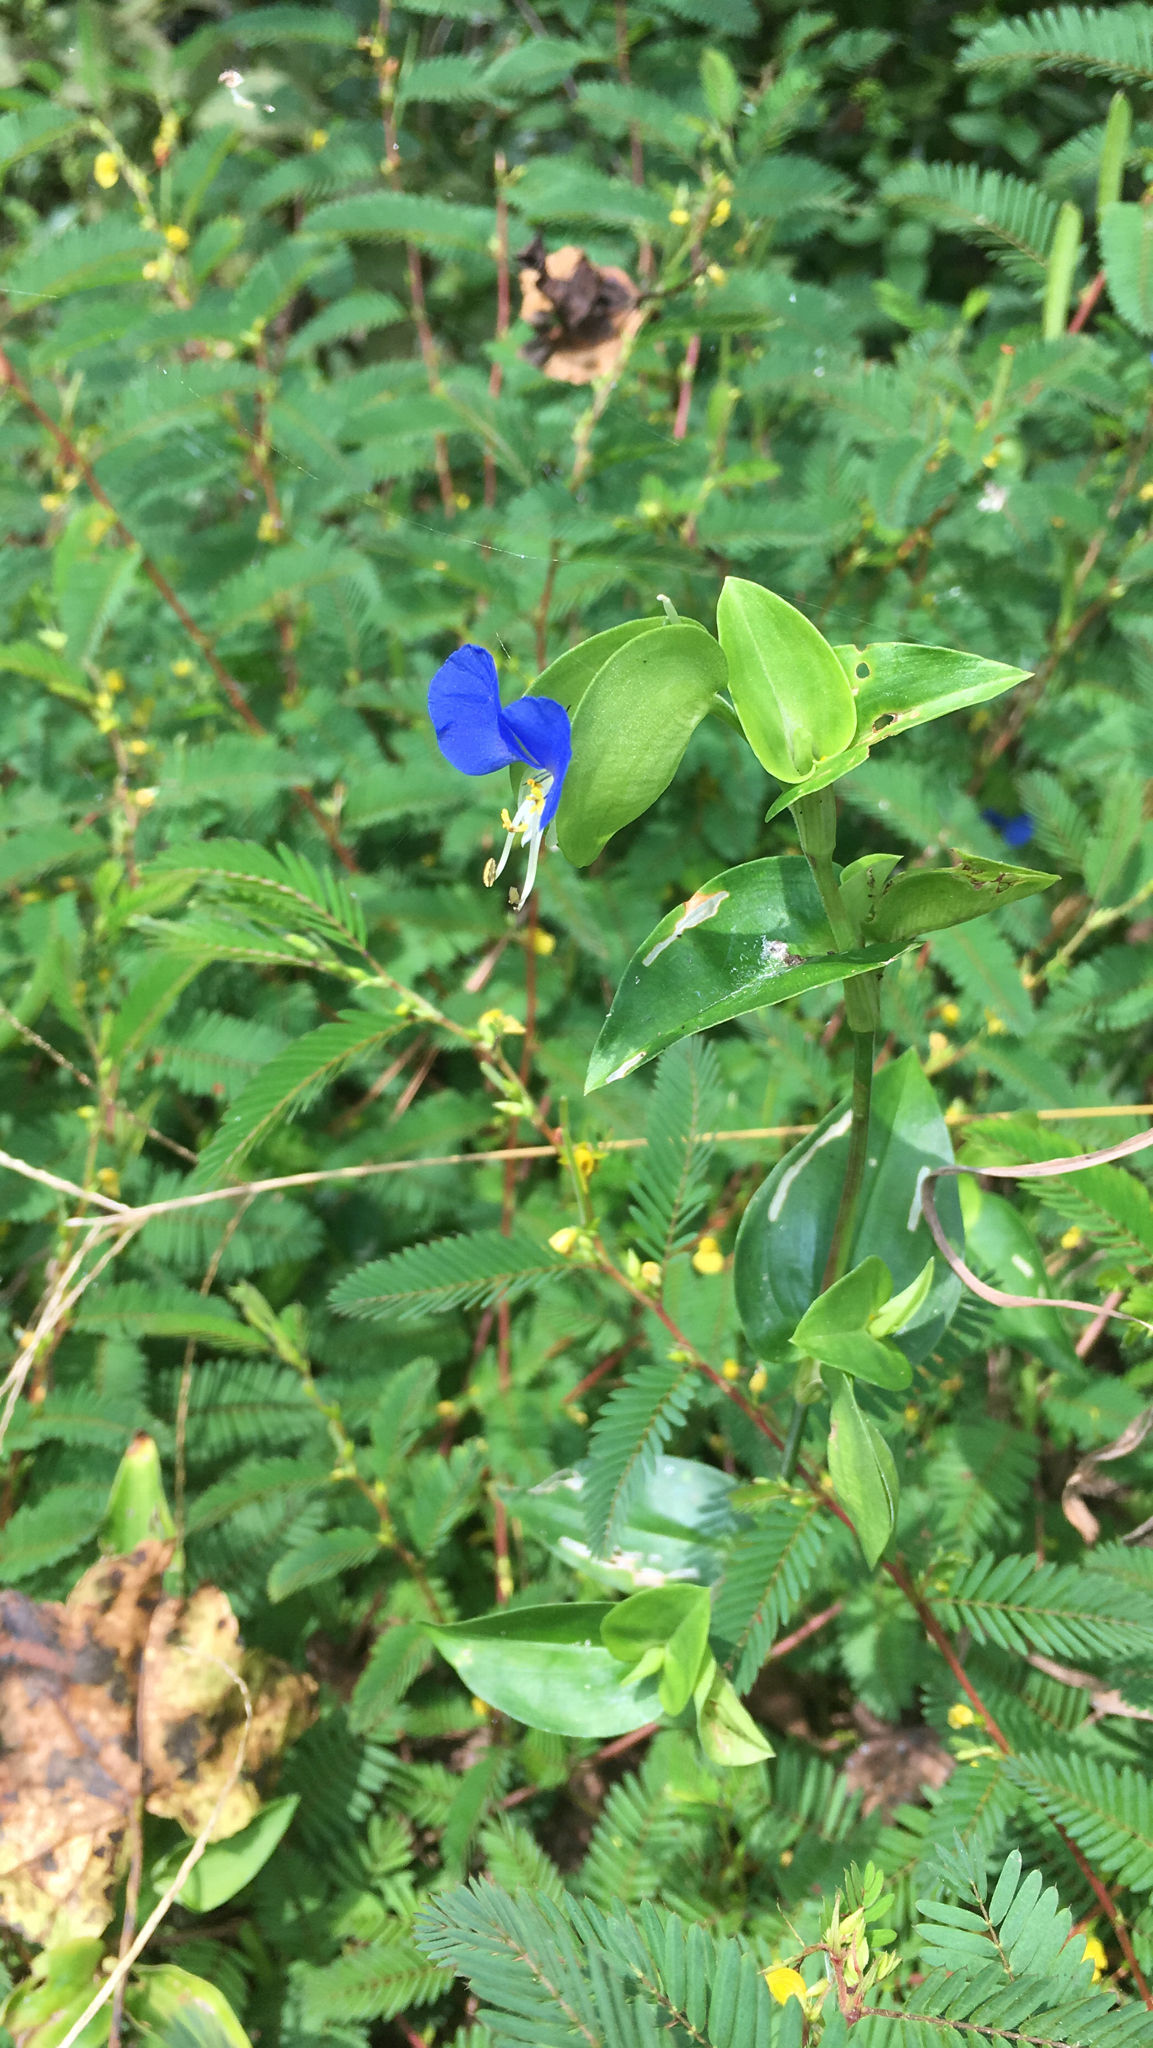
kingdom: Plantae
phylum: Tracheophyta
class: Liliopsida
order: Commelinales
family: Commelinaceae
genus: Commelina
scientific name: Commelina communis
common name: Asiatic dayflower
